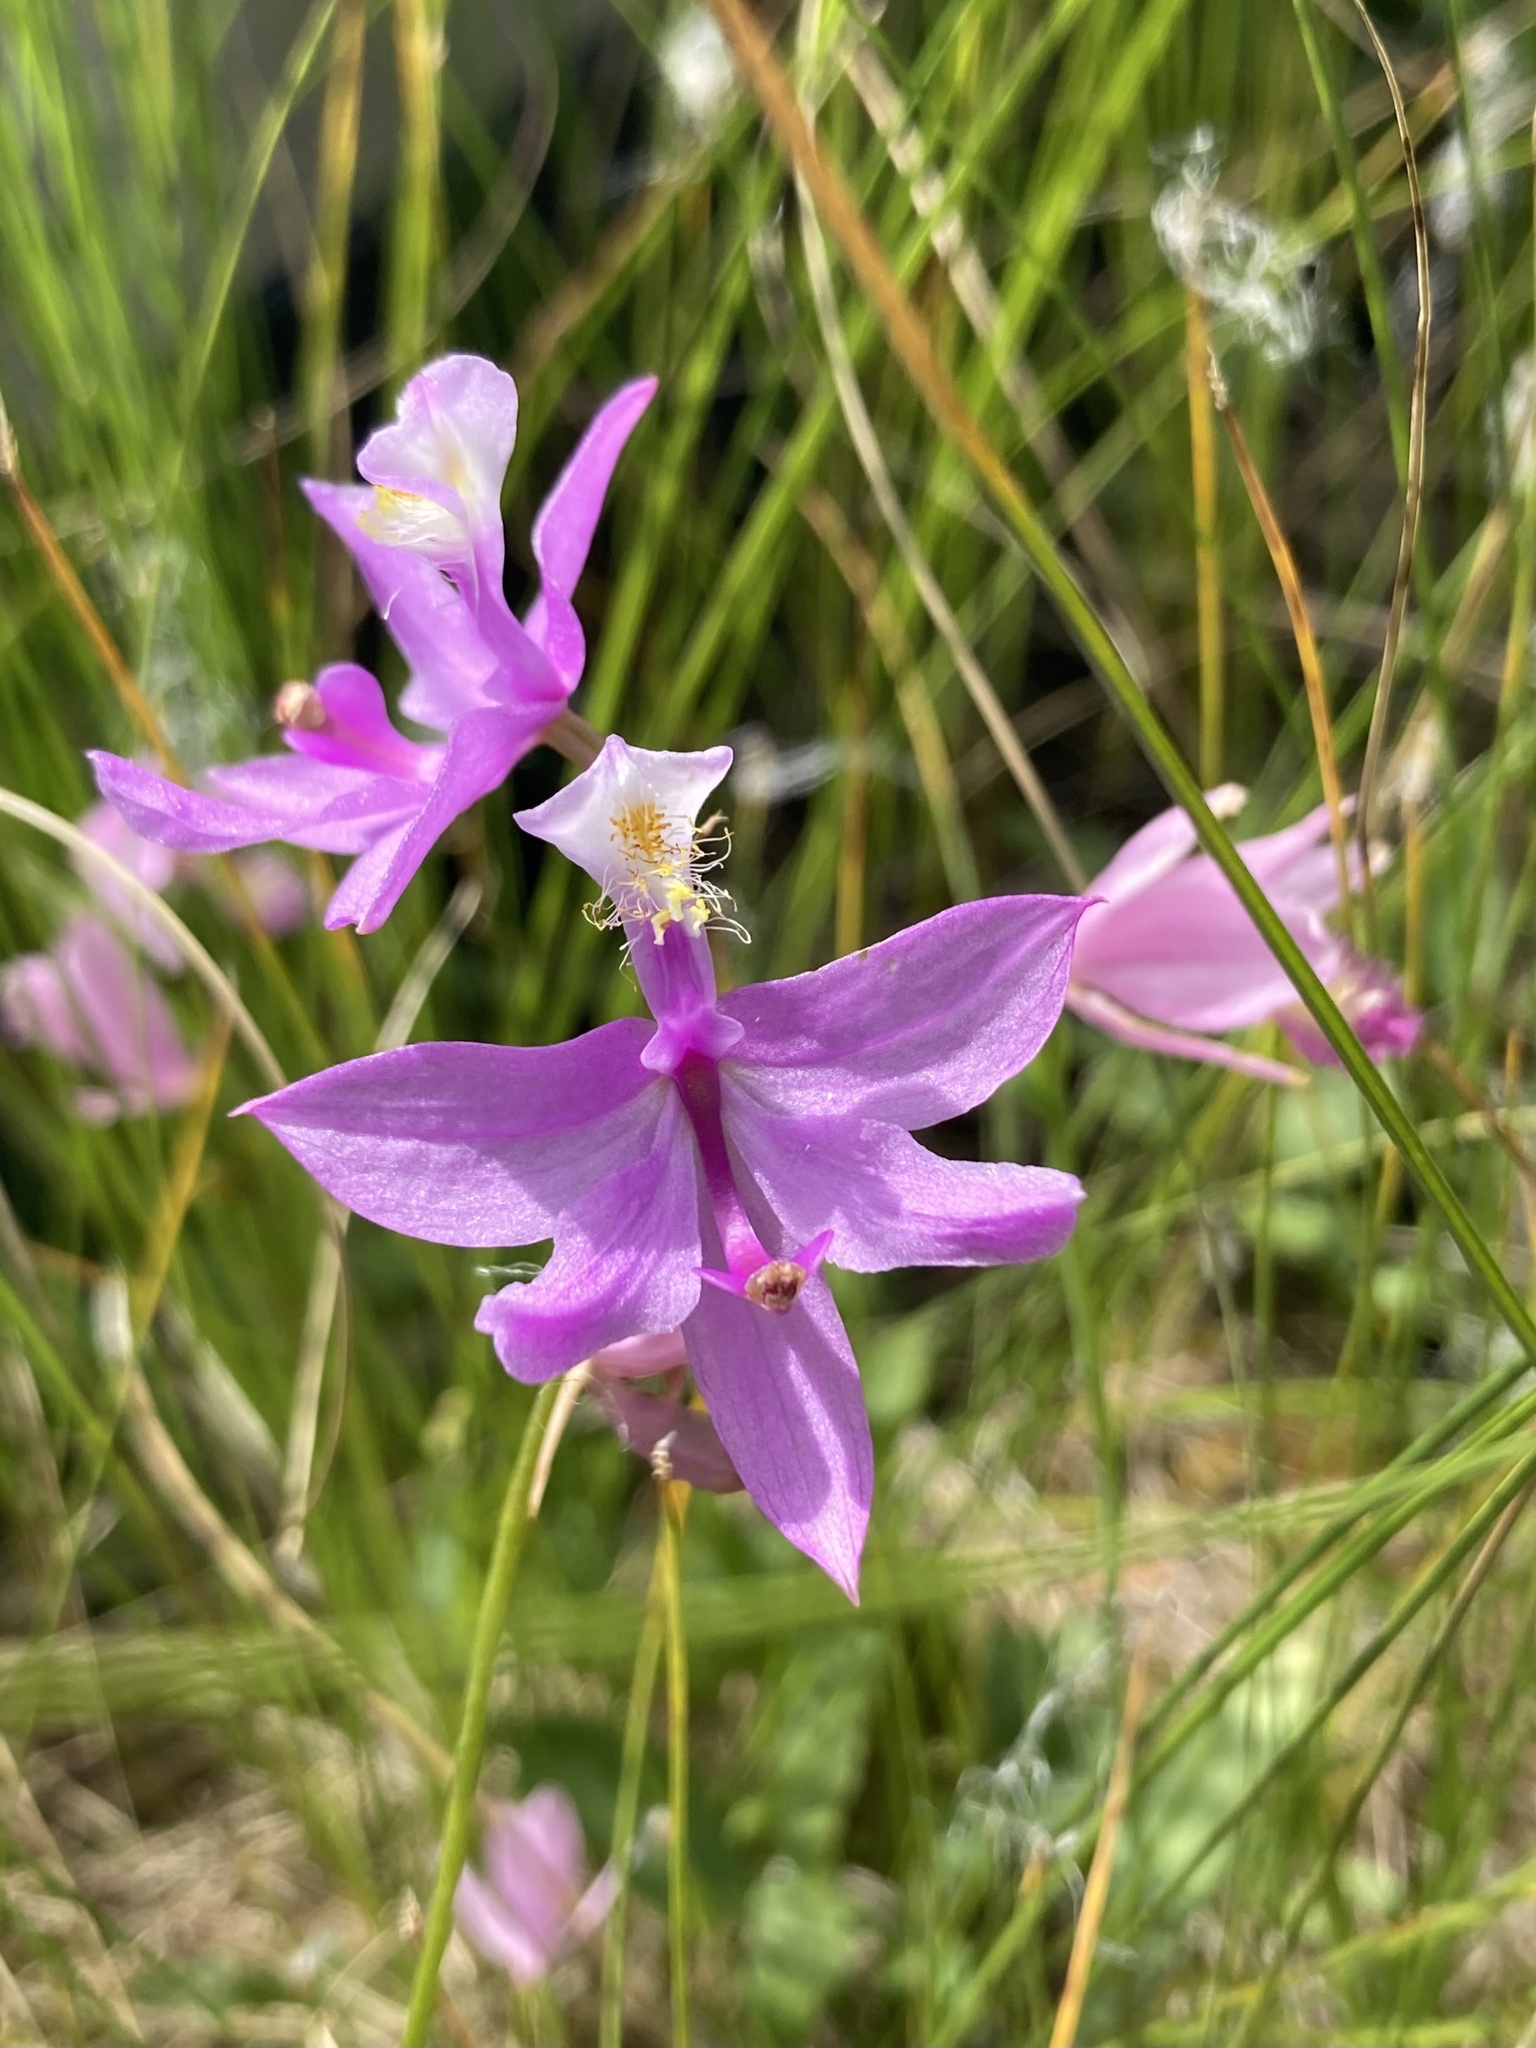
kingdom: Plantae
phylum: Tracheophyta
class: Liliopsida
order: Asparagales
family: Orchidaceae
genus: Calopogon
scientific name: Calopogon tuberosus
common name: Grass-pink
